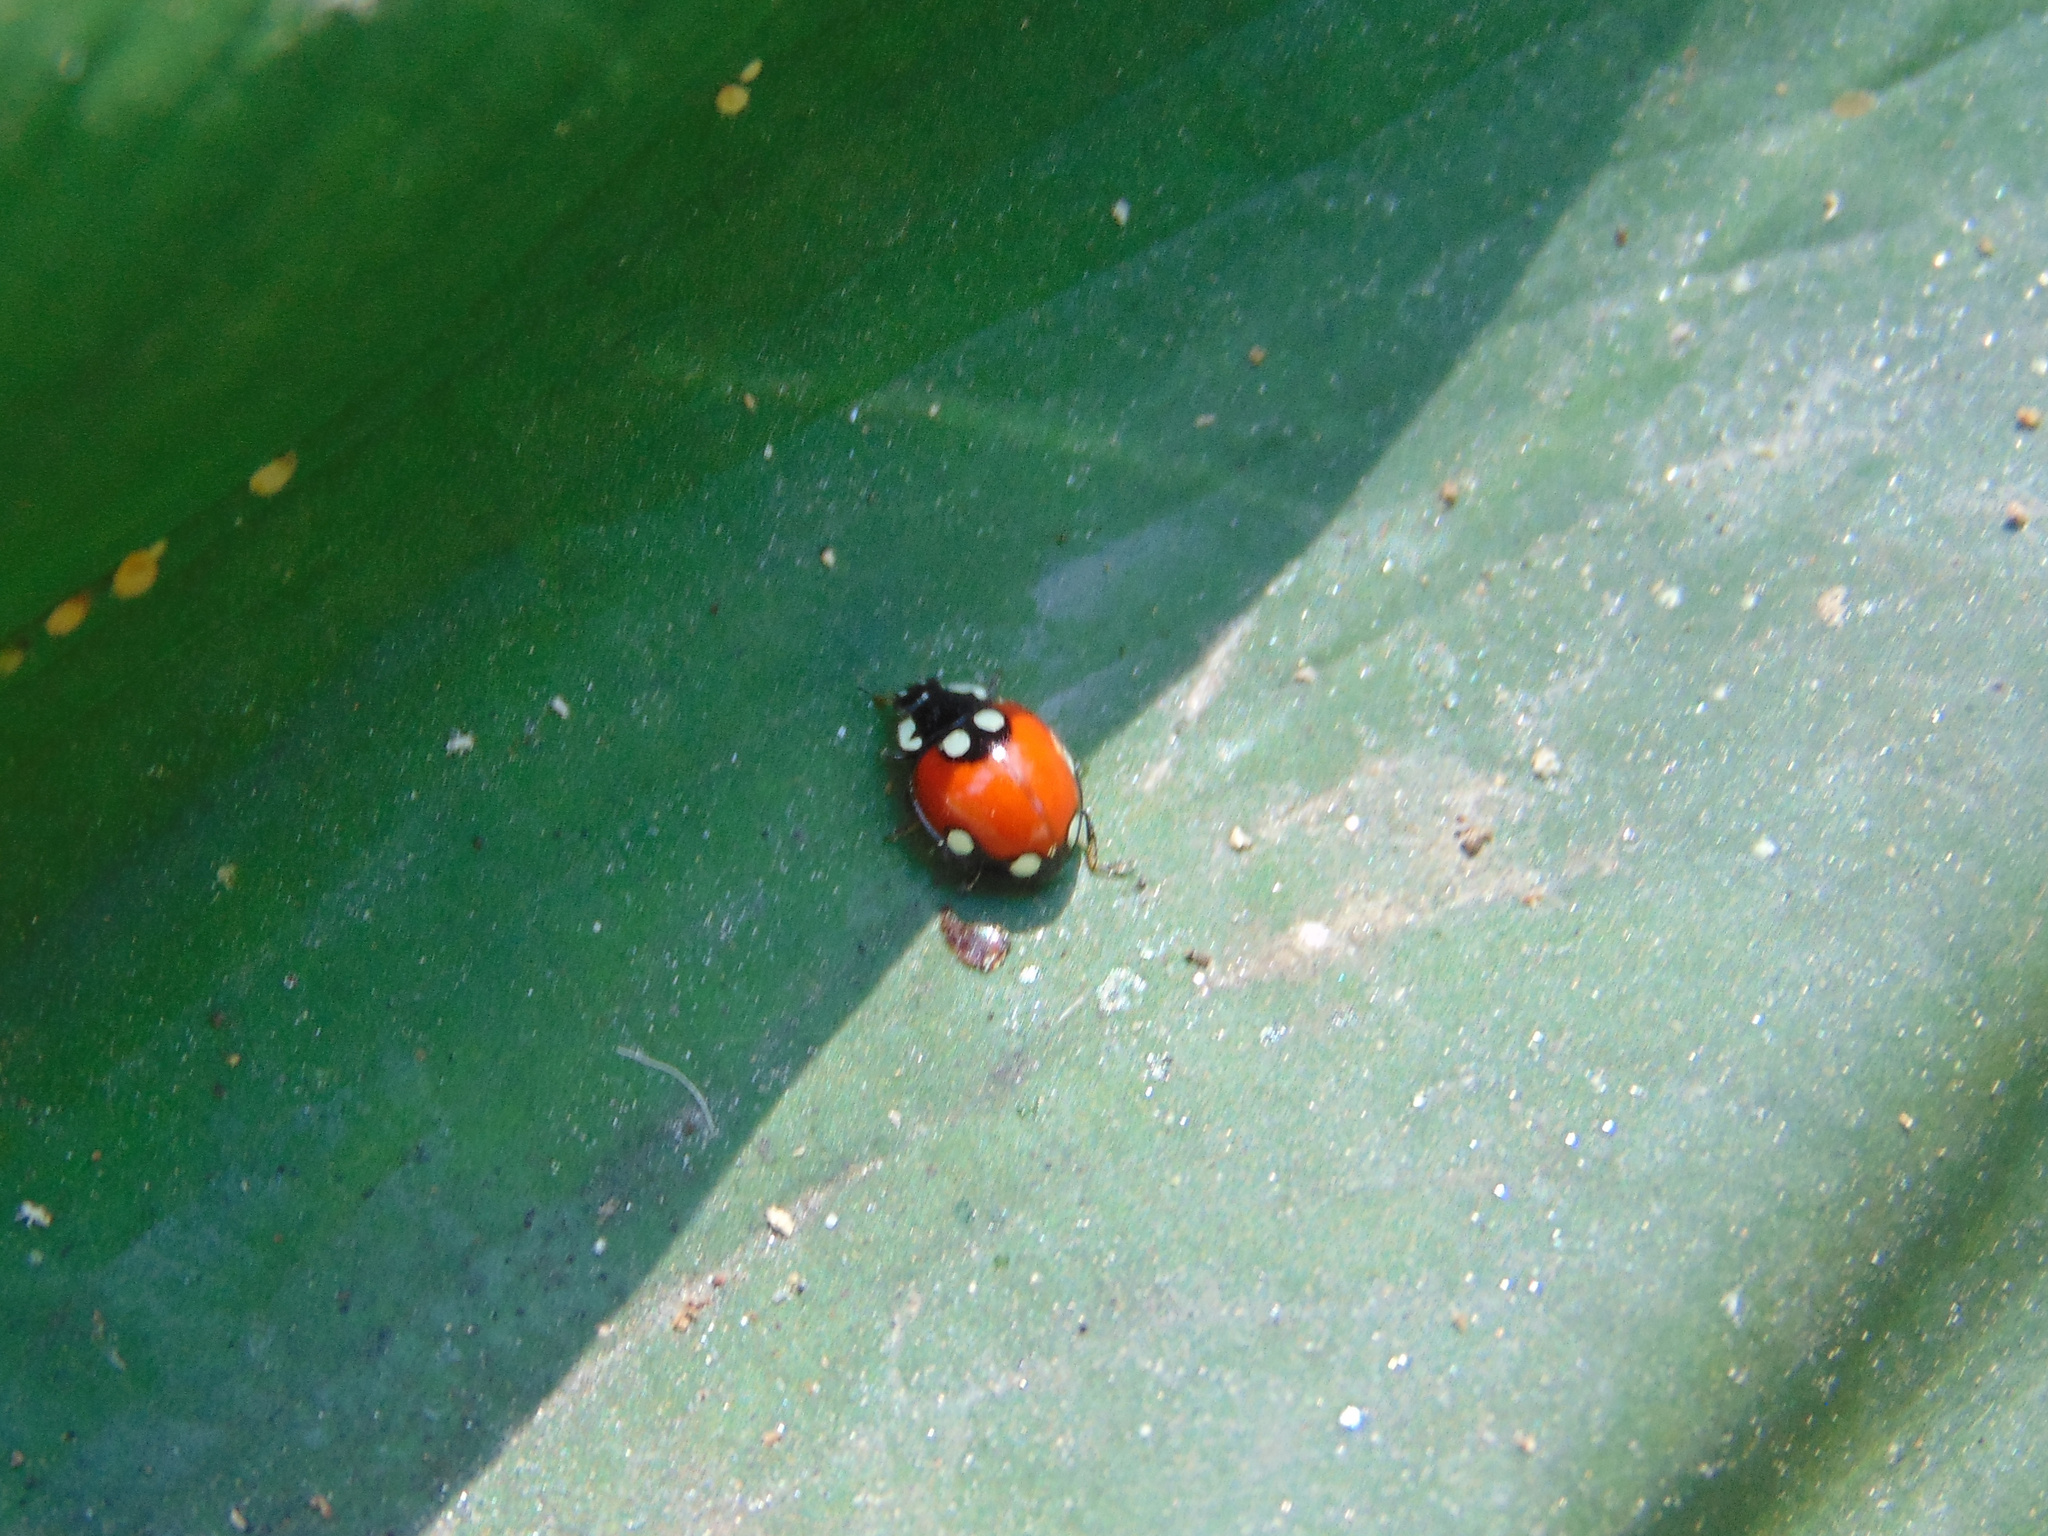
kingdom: Animalia
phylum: Arthropoda
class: Insecta
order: Coleoptera
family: Coccinellidae
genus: Cycloneda
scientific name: Cycloneda
